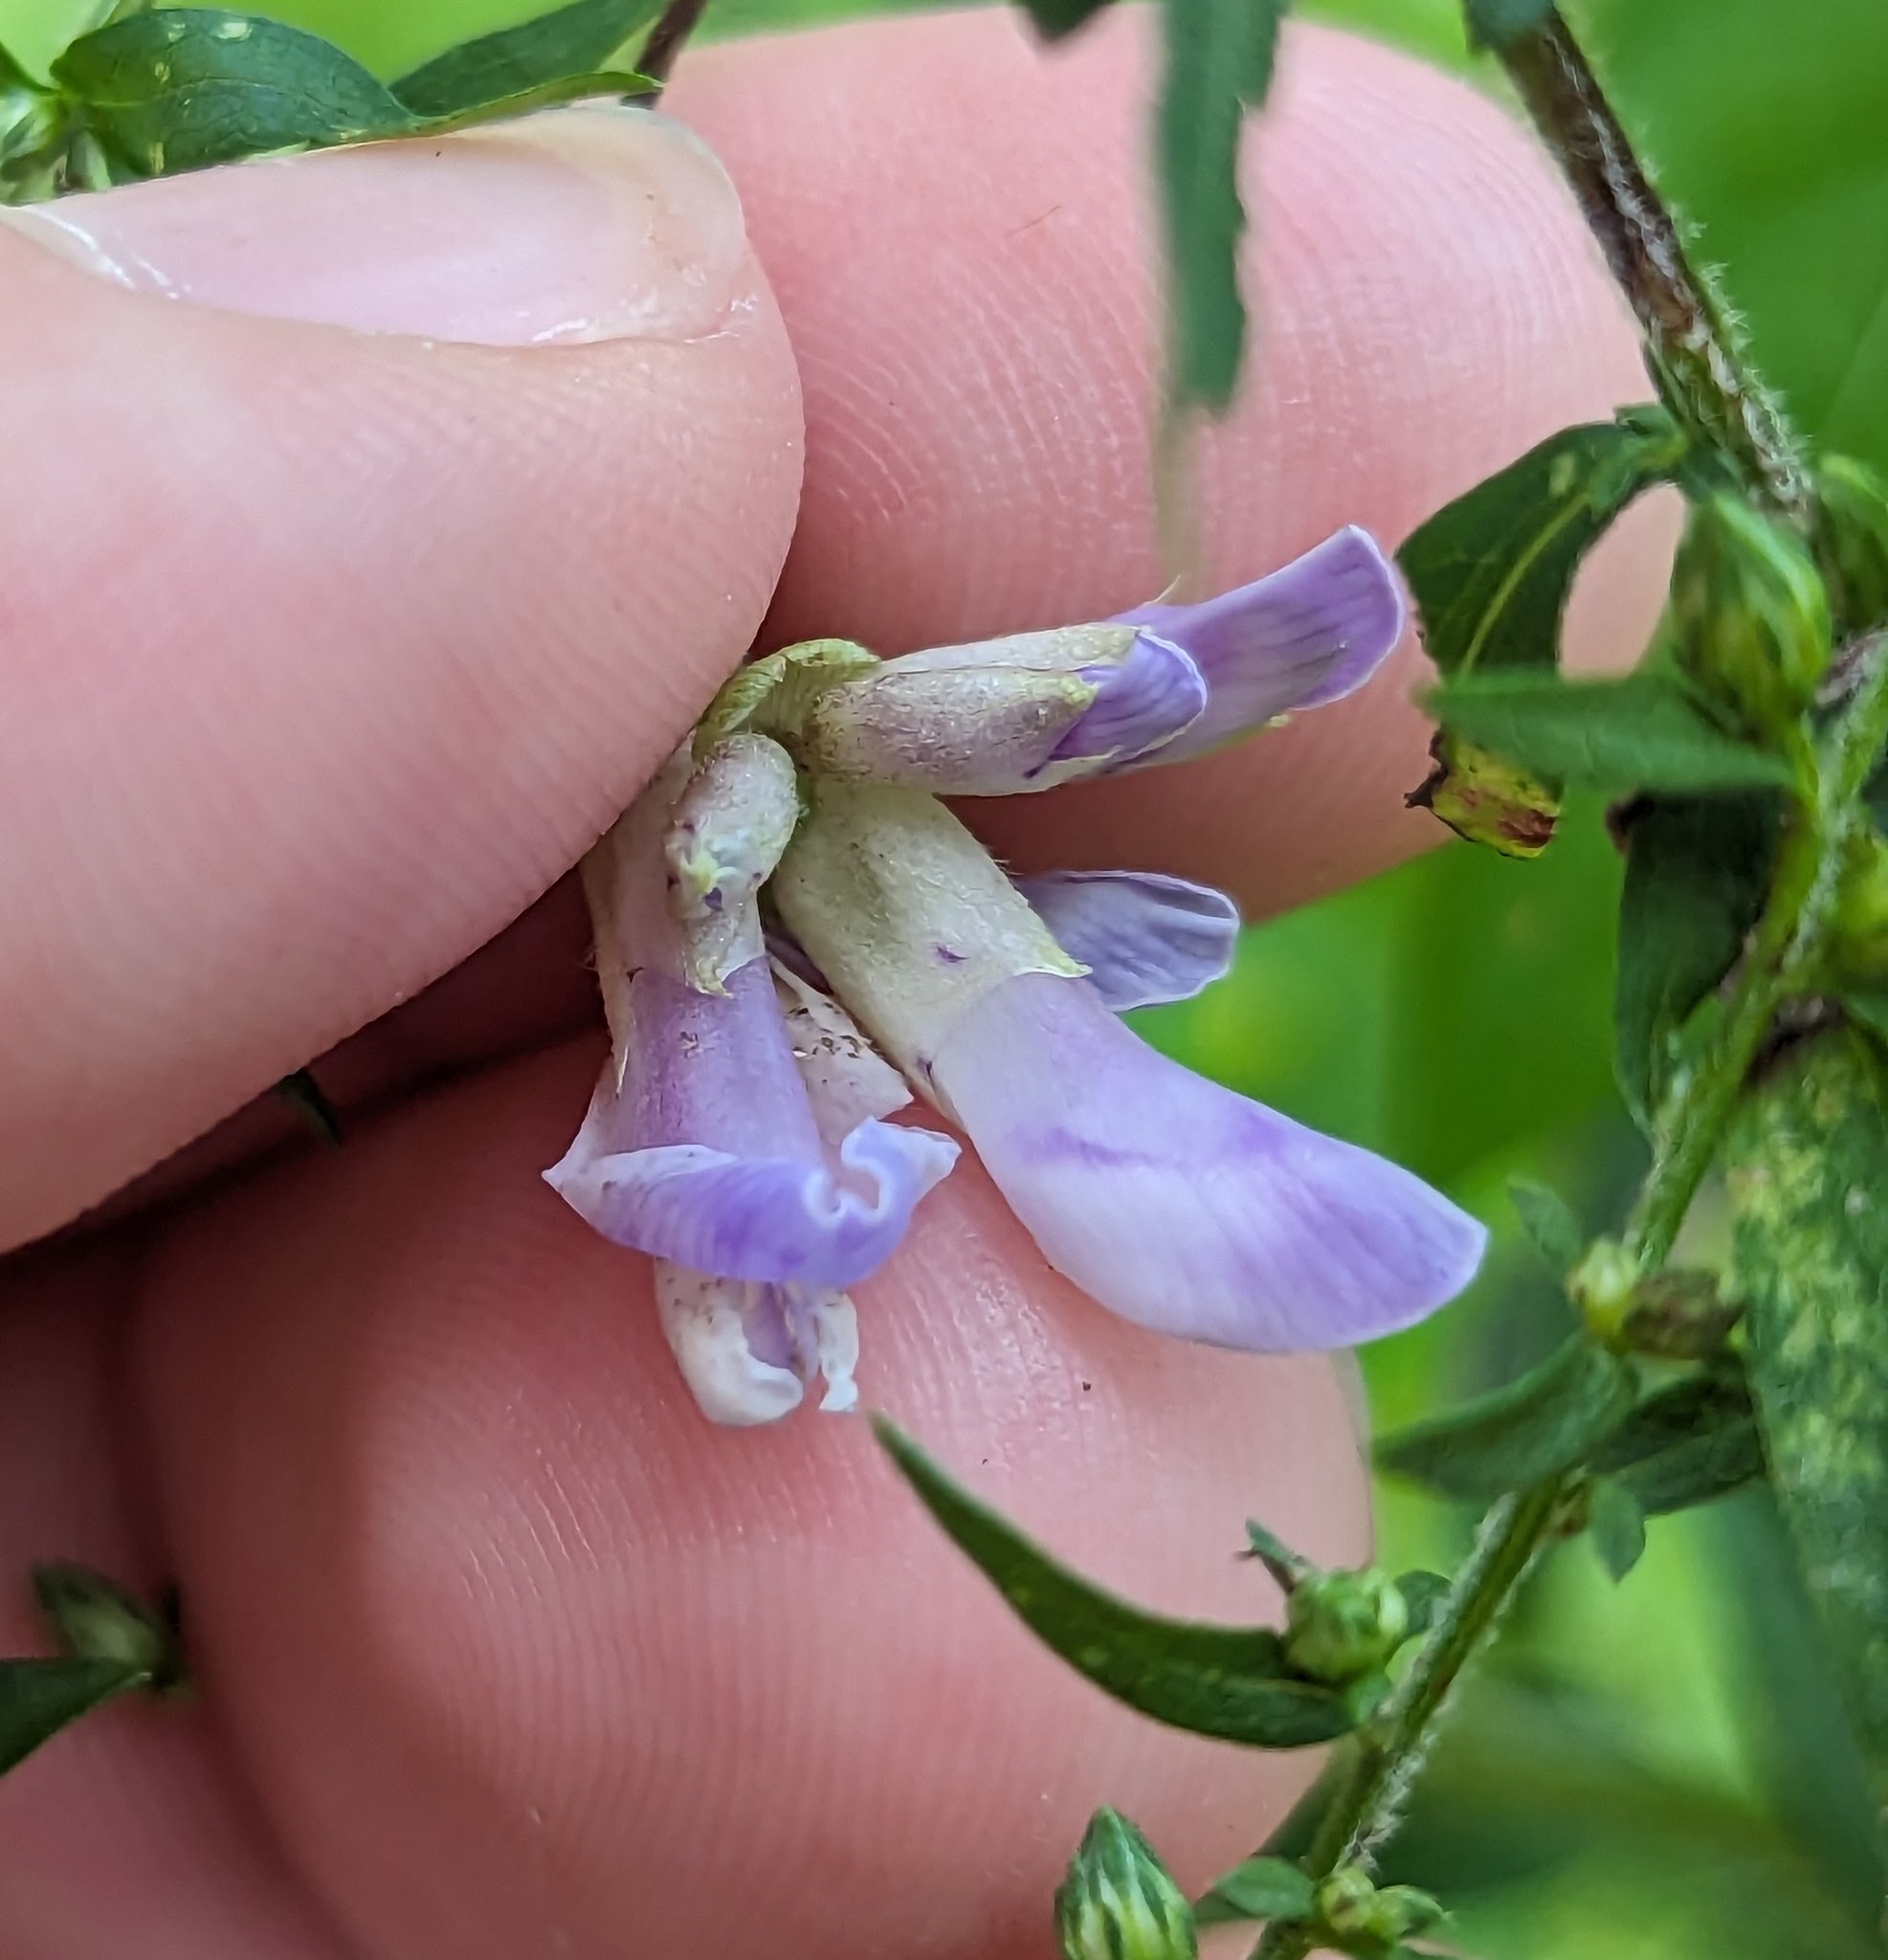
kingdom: Plantae
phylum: Tracheophyta
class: Magnoliopsida
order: Fabales
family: Fabaceae
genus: Amphicarpaea
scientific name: Amphicarpaea bracteata
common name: American hog peanut
